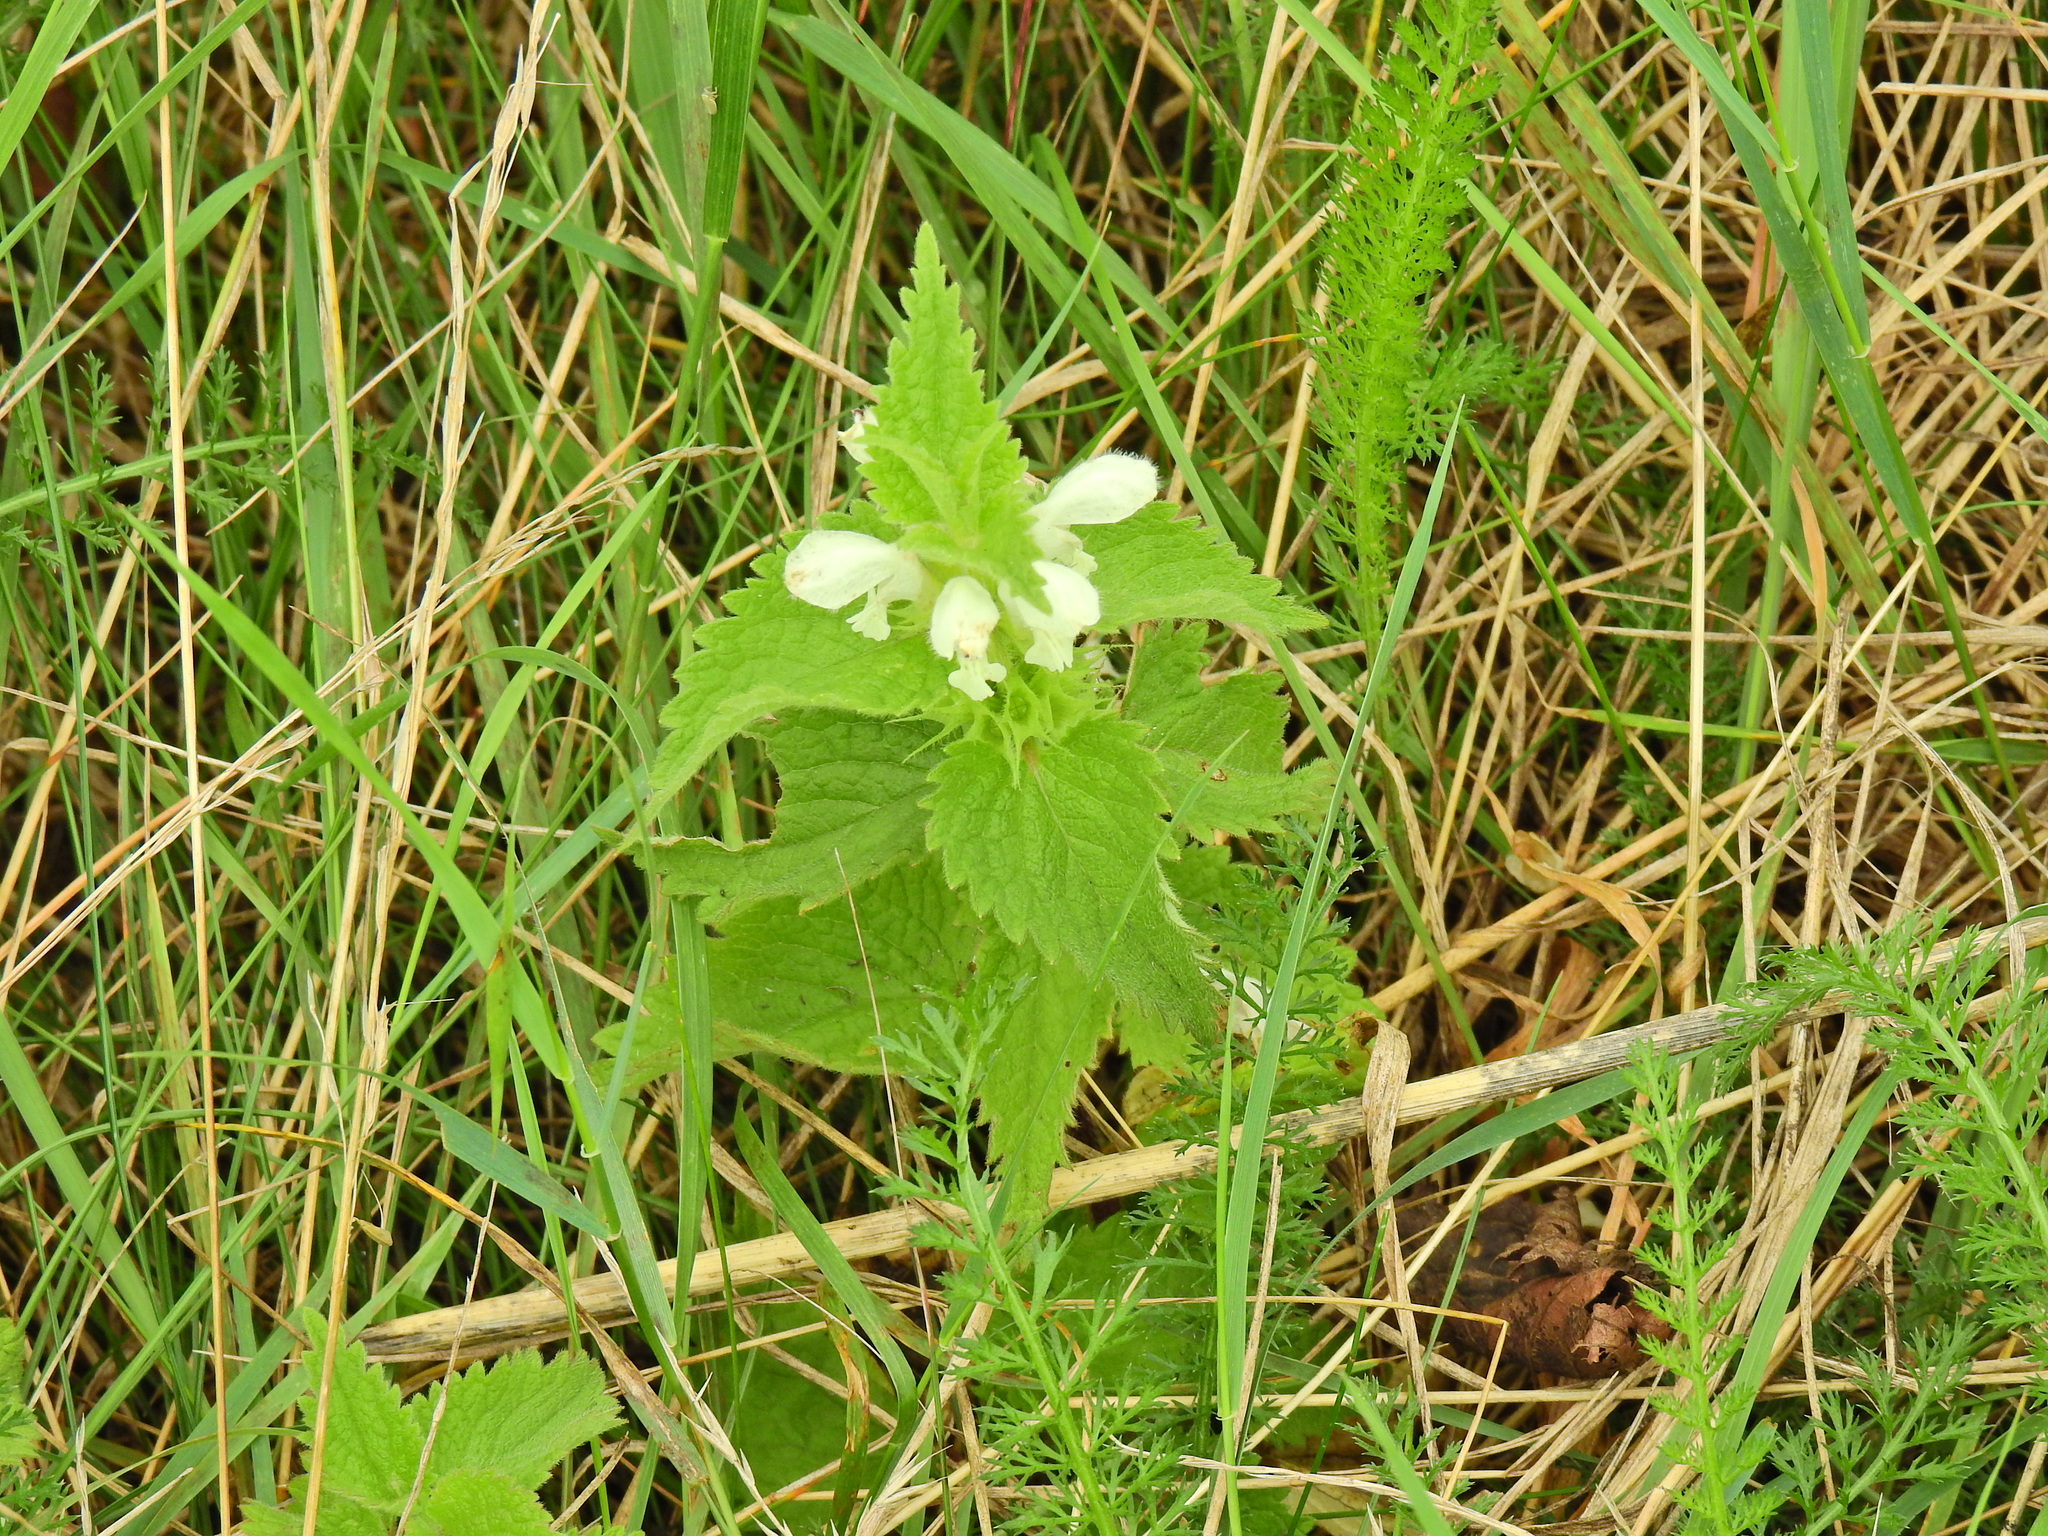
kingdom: Plantae
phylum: Tracheophyta
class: Magnoliopsida
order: Lamiales
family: Lamiaceae
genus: Lamium
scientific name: Lamium album
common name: White dead-nettle
